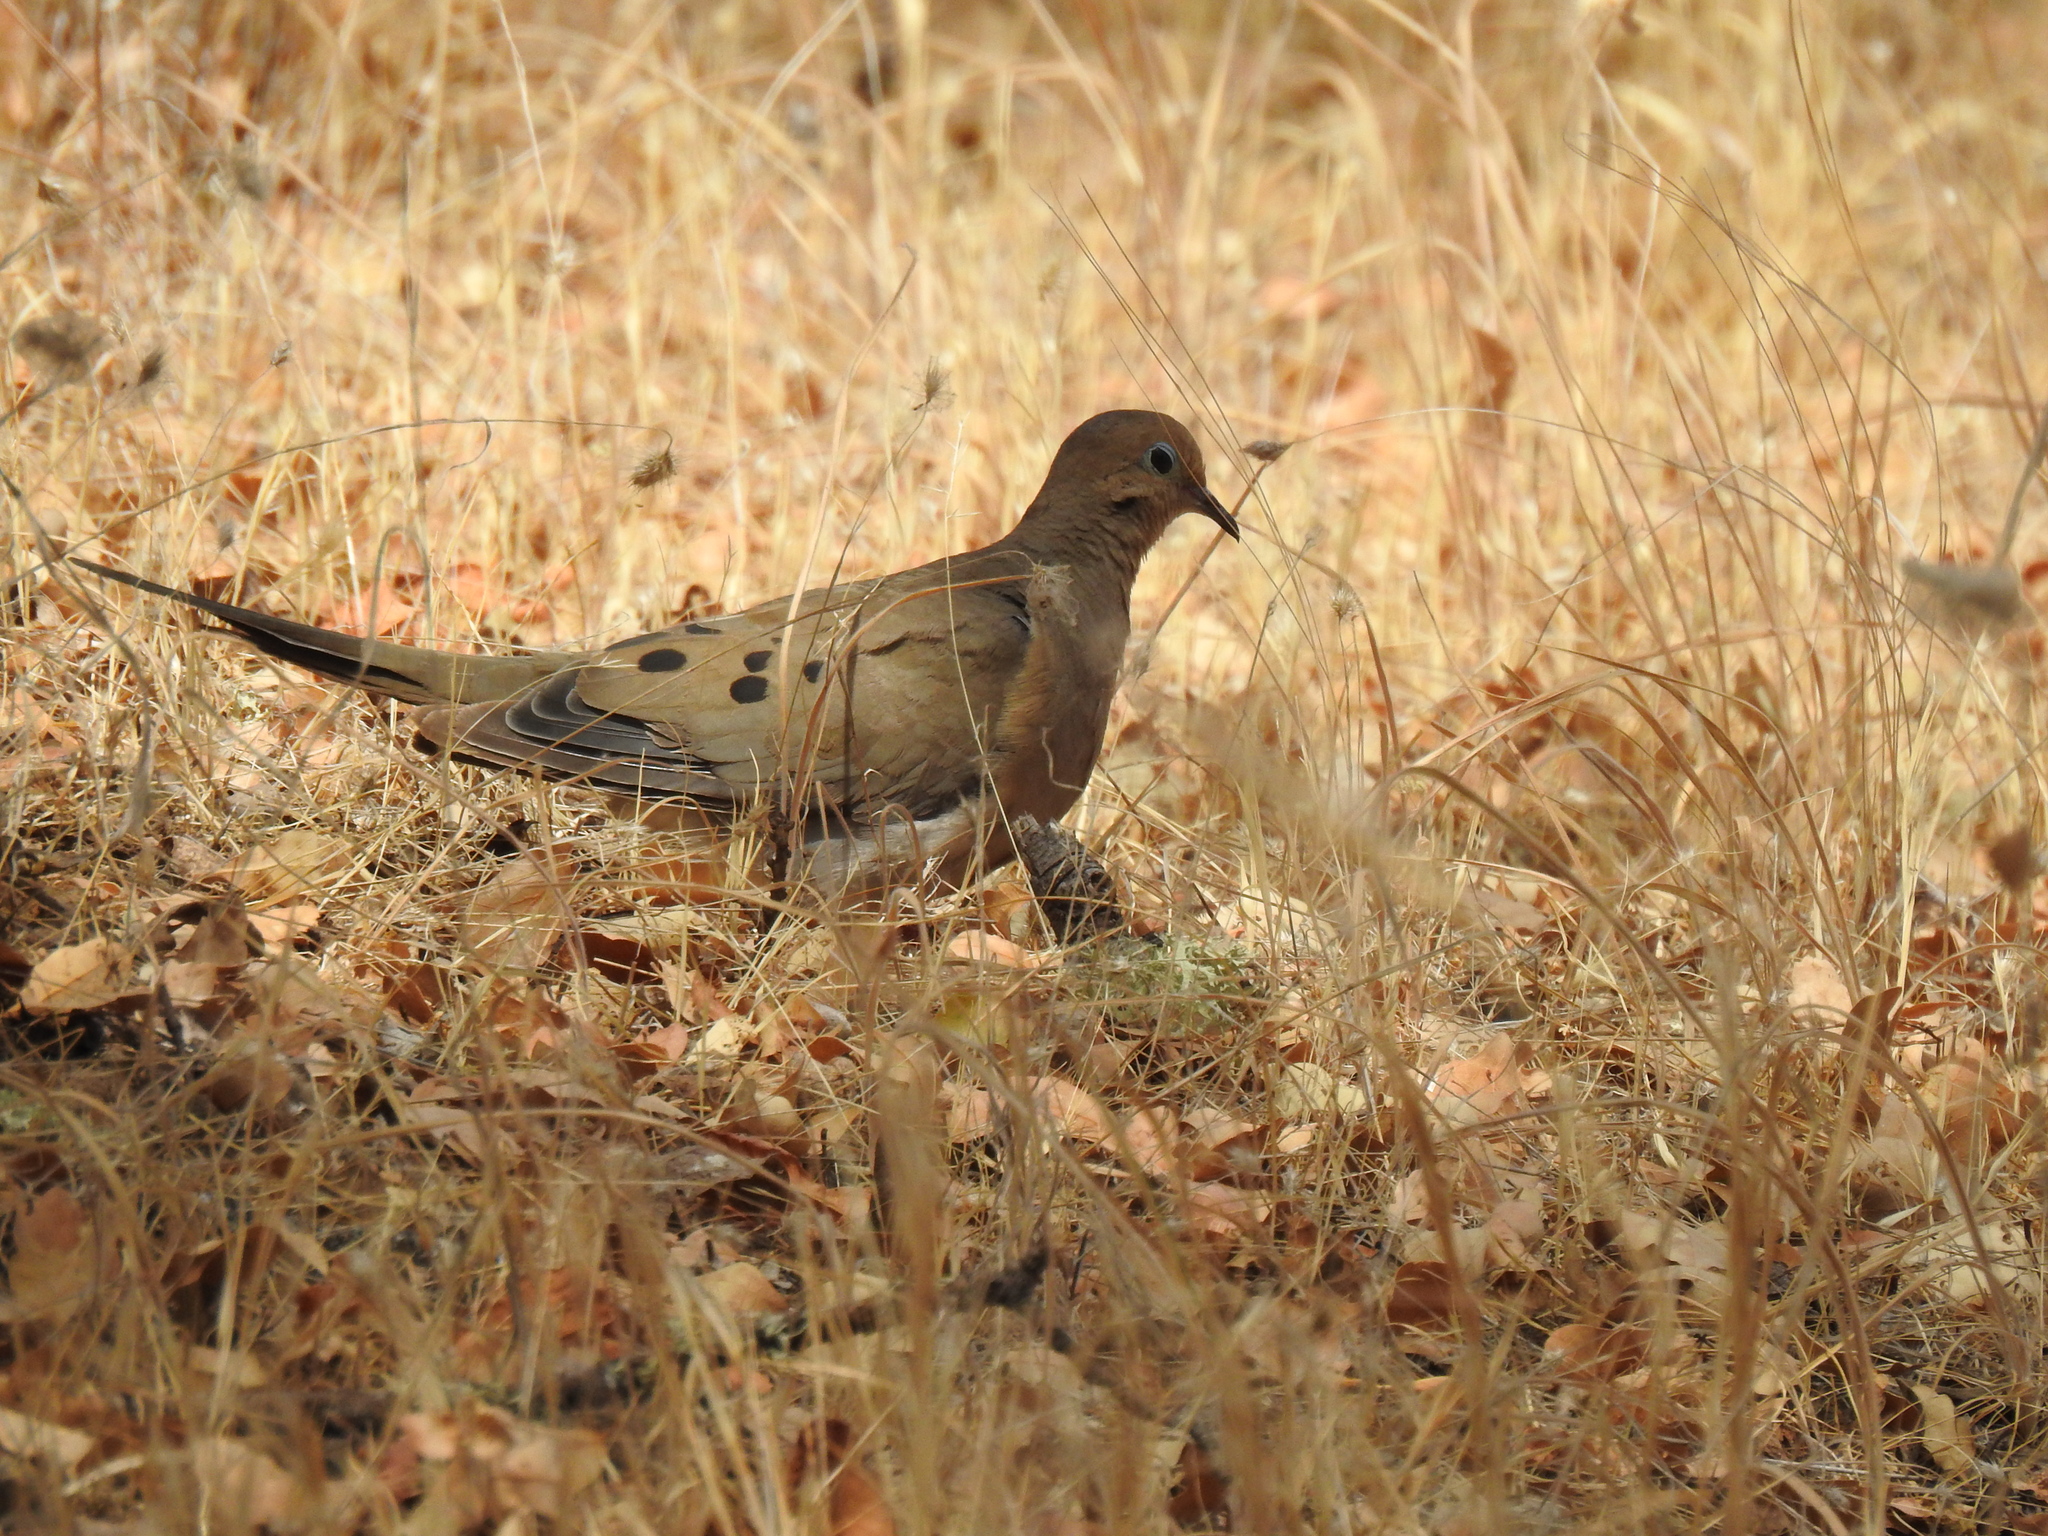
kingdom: Animalia
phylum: Chordata
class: Aves
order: Columbiformes
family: Columbidae
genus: Zenaida
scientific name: Zenaida macroura
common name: Mourning dove
